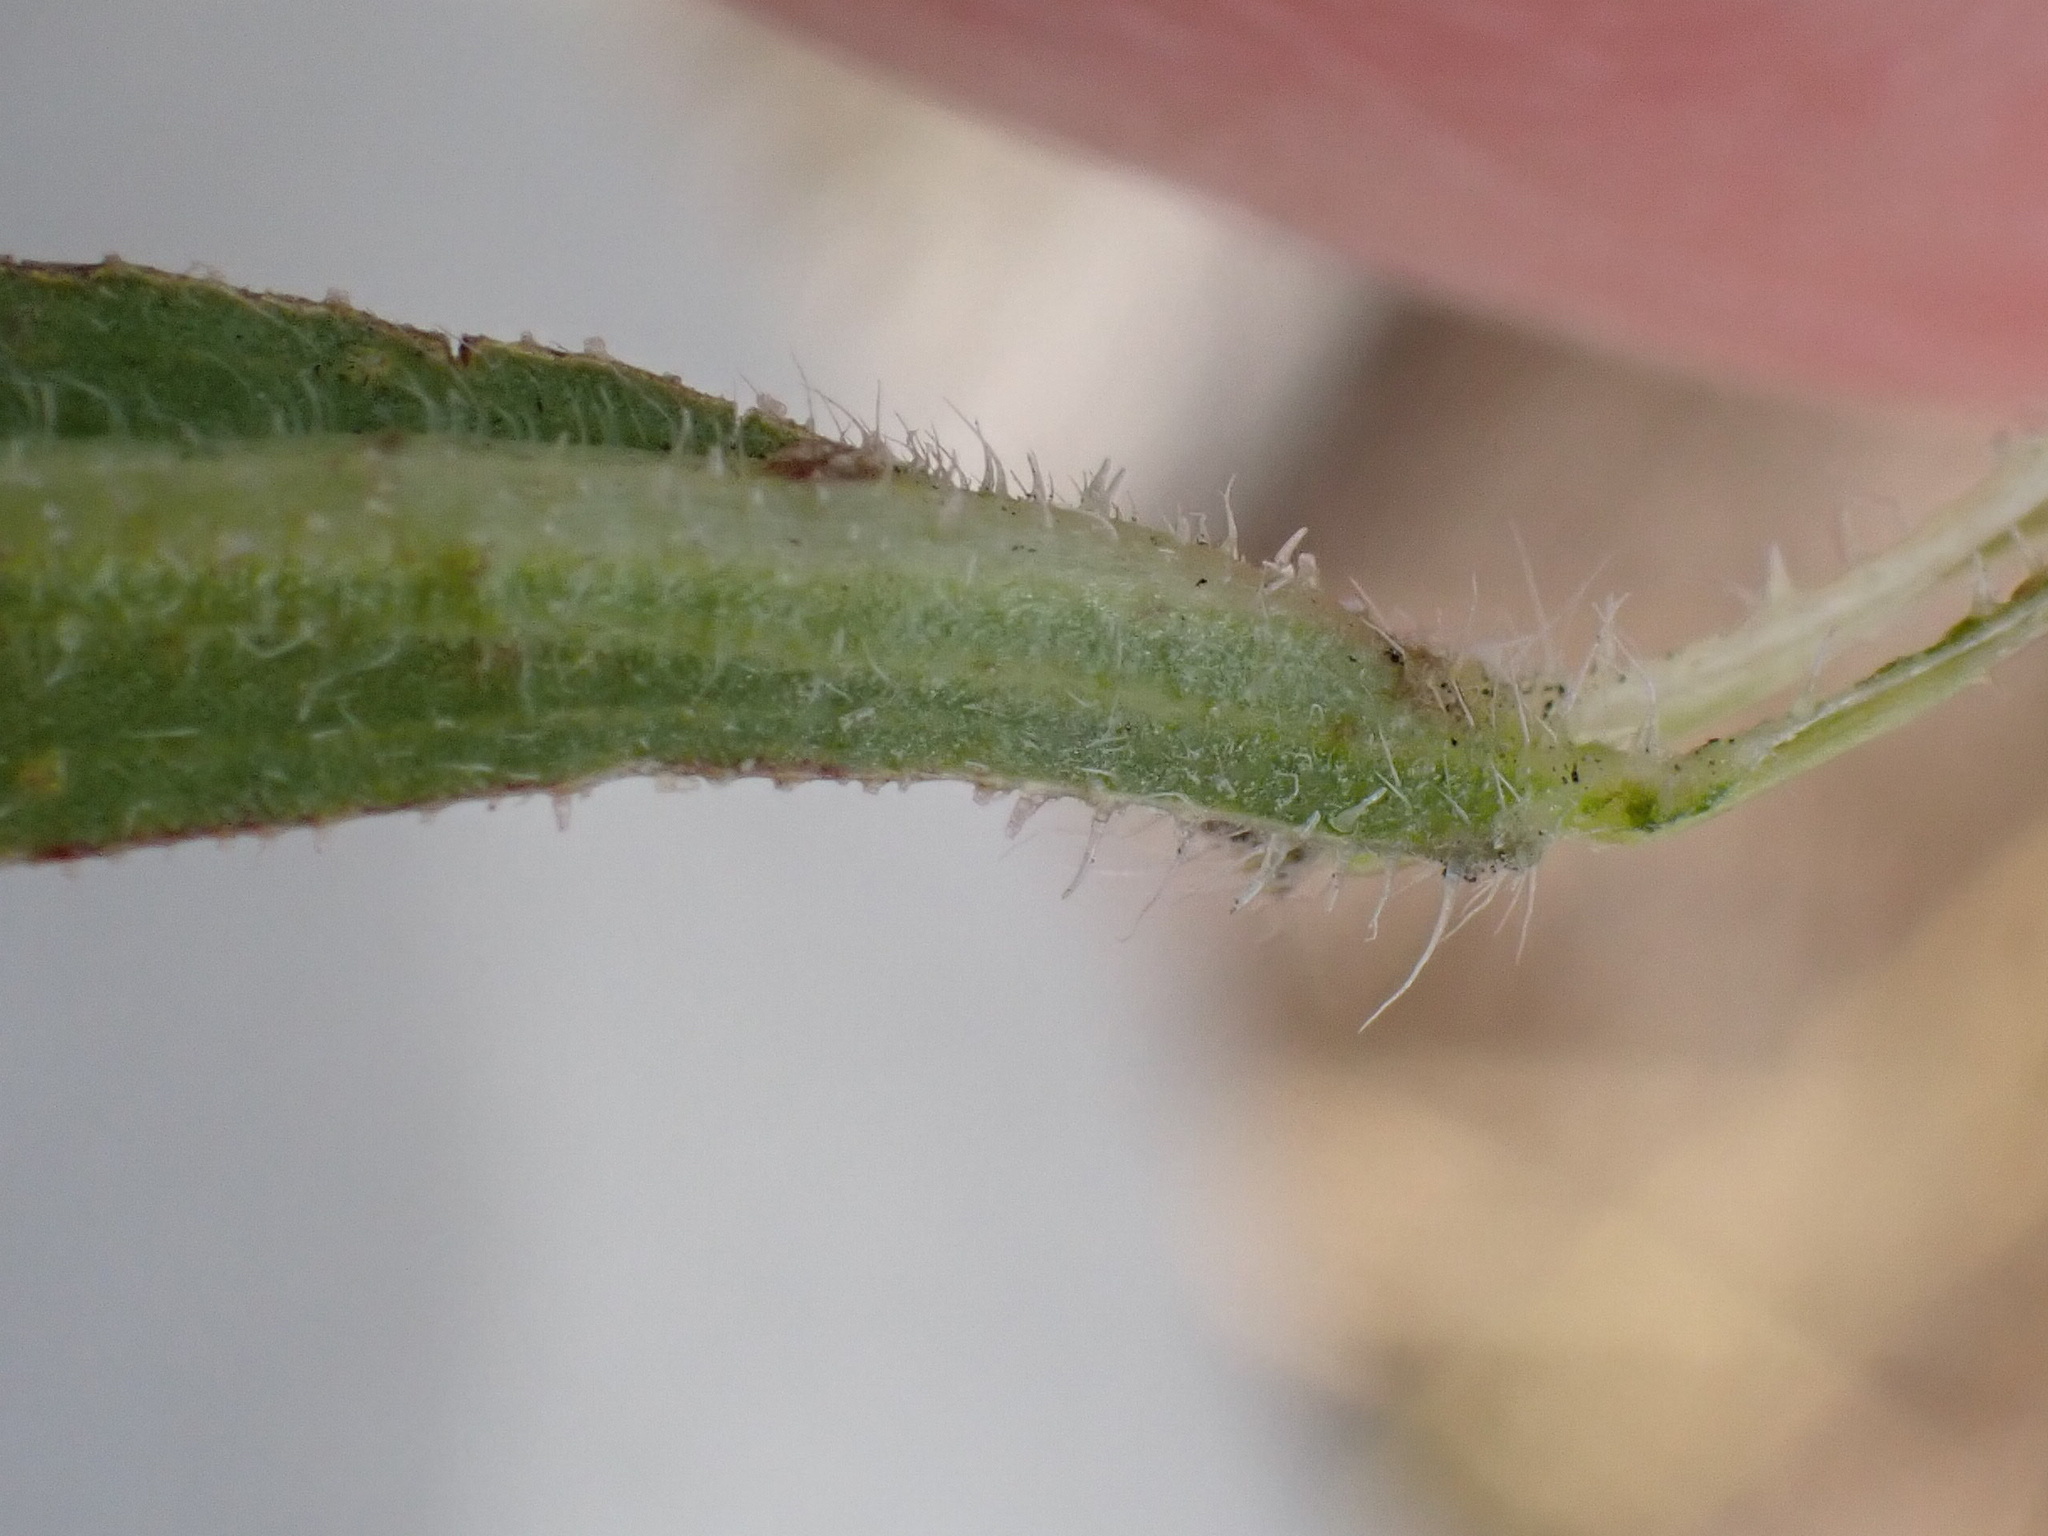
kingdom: Plantae
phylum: Tracheophyta
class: Magnoliopsida
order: Asterales
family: Asteraceae
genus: Erigeron
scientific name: Erigeron sumatrensis
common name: Daisy
